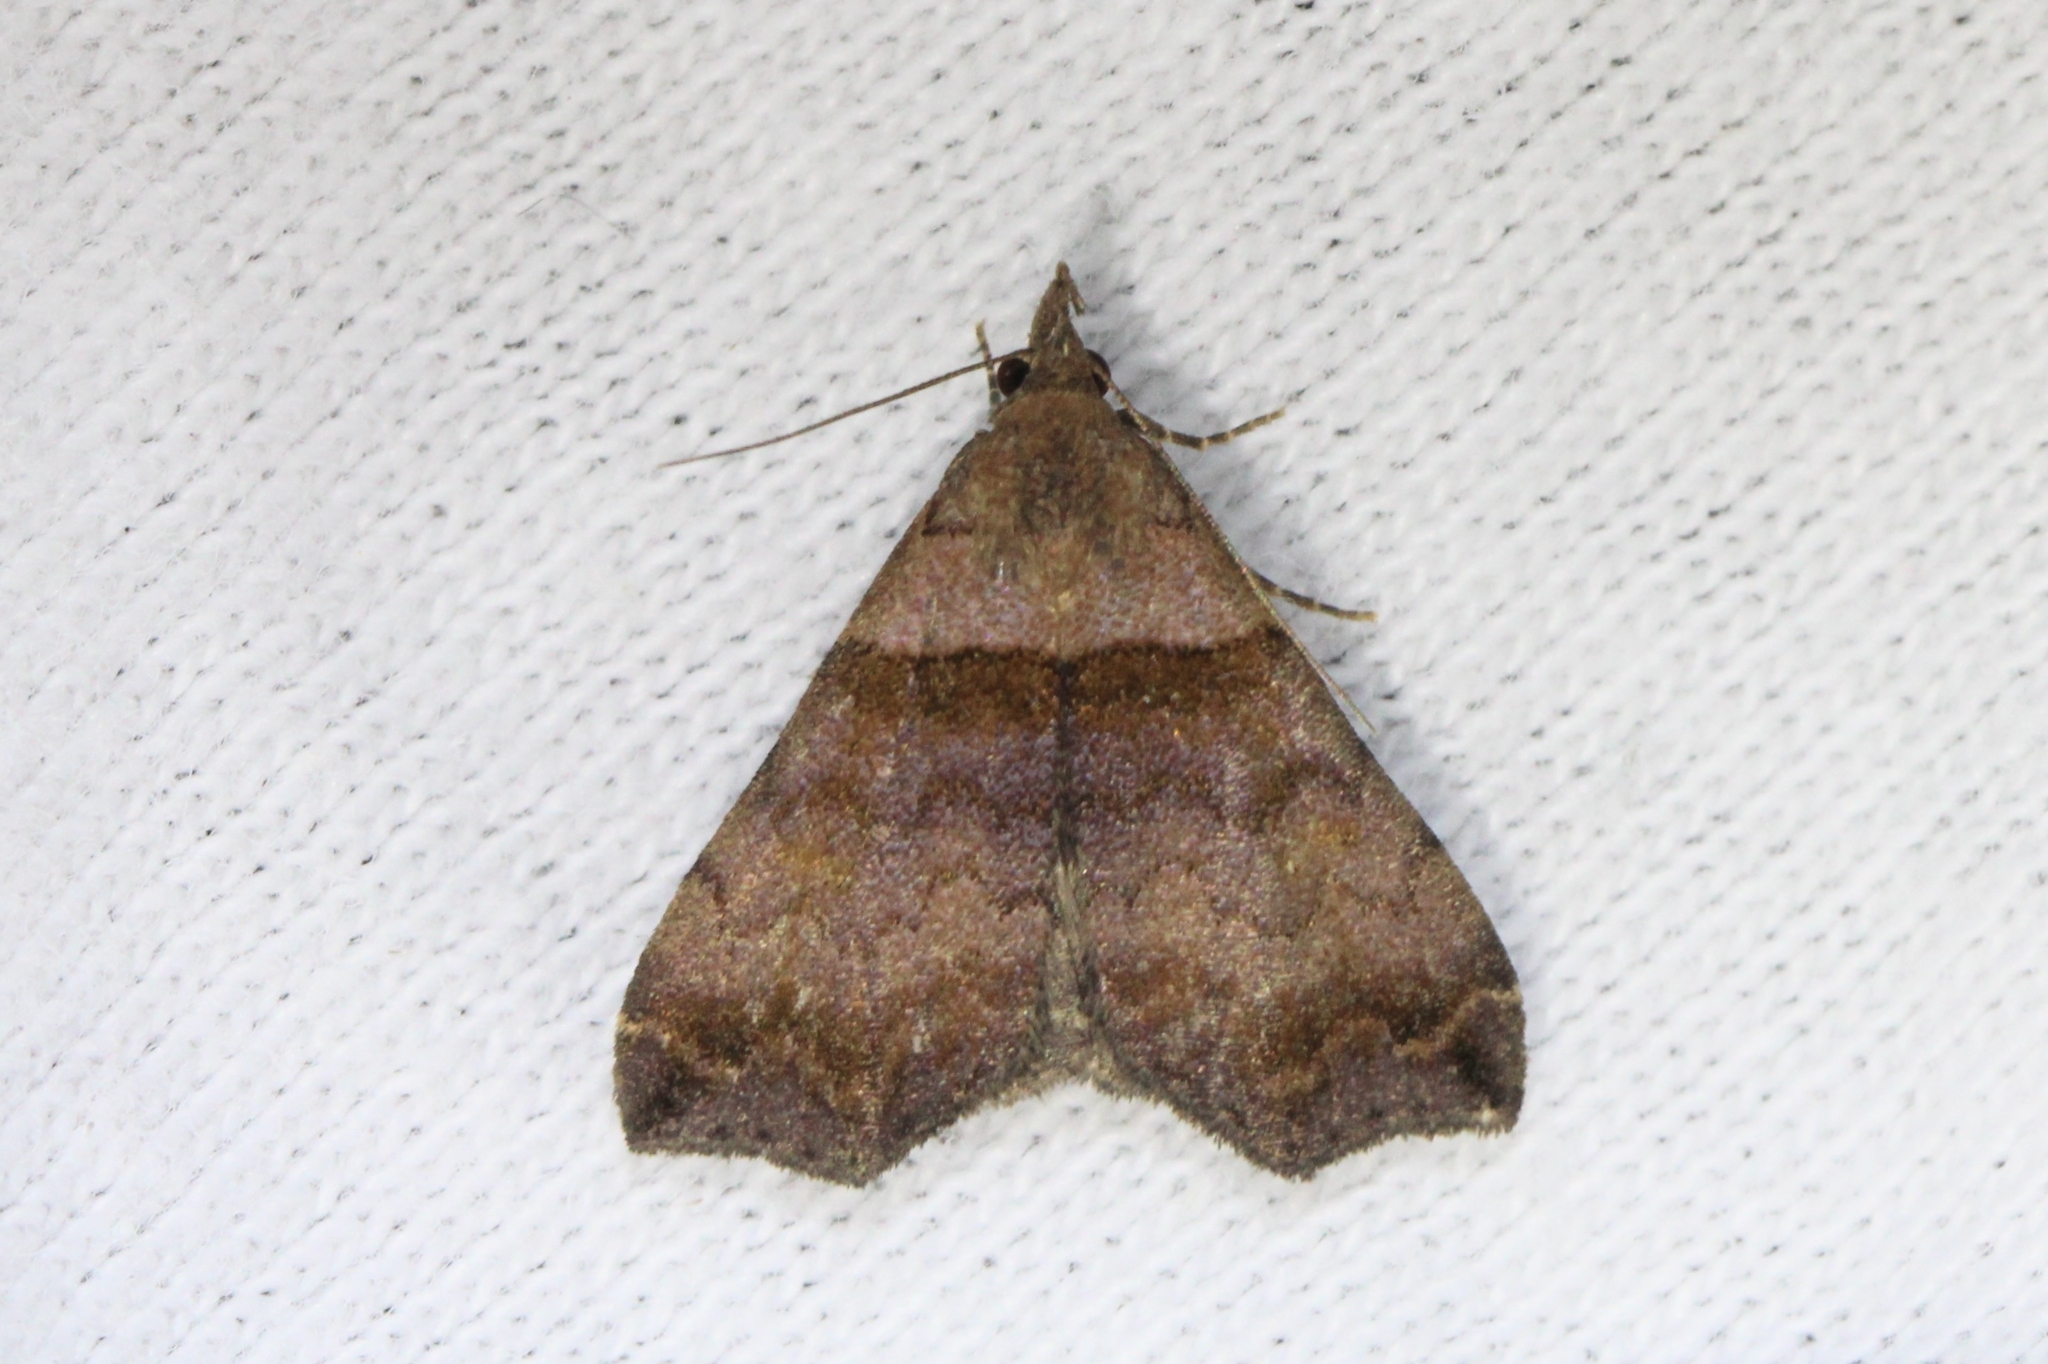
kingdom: Animalia
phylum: Arthropoda
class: Insecta
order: Lepidoptera
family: Erebidae
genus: Lascoria
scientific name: Lascoria ambigualis
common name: Ambiguous moth
